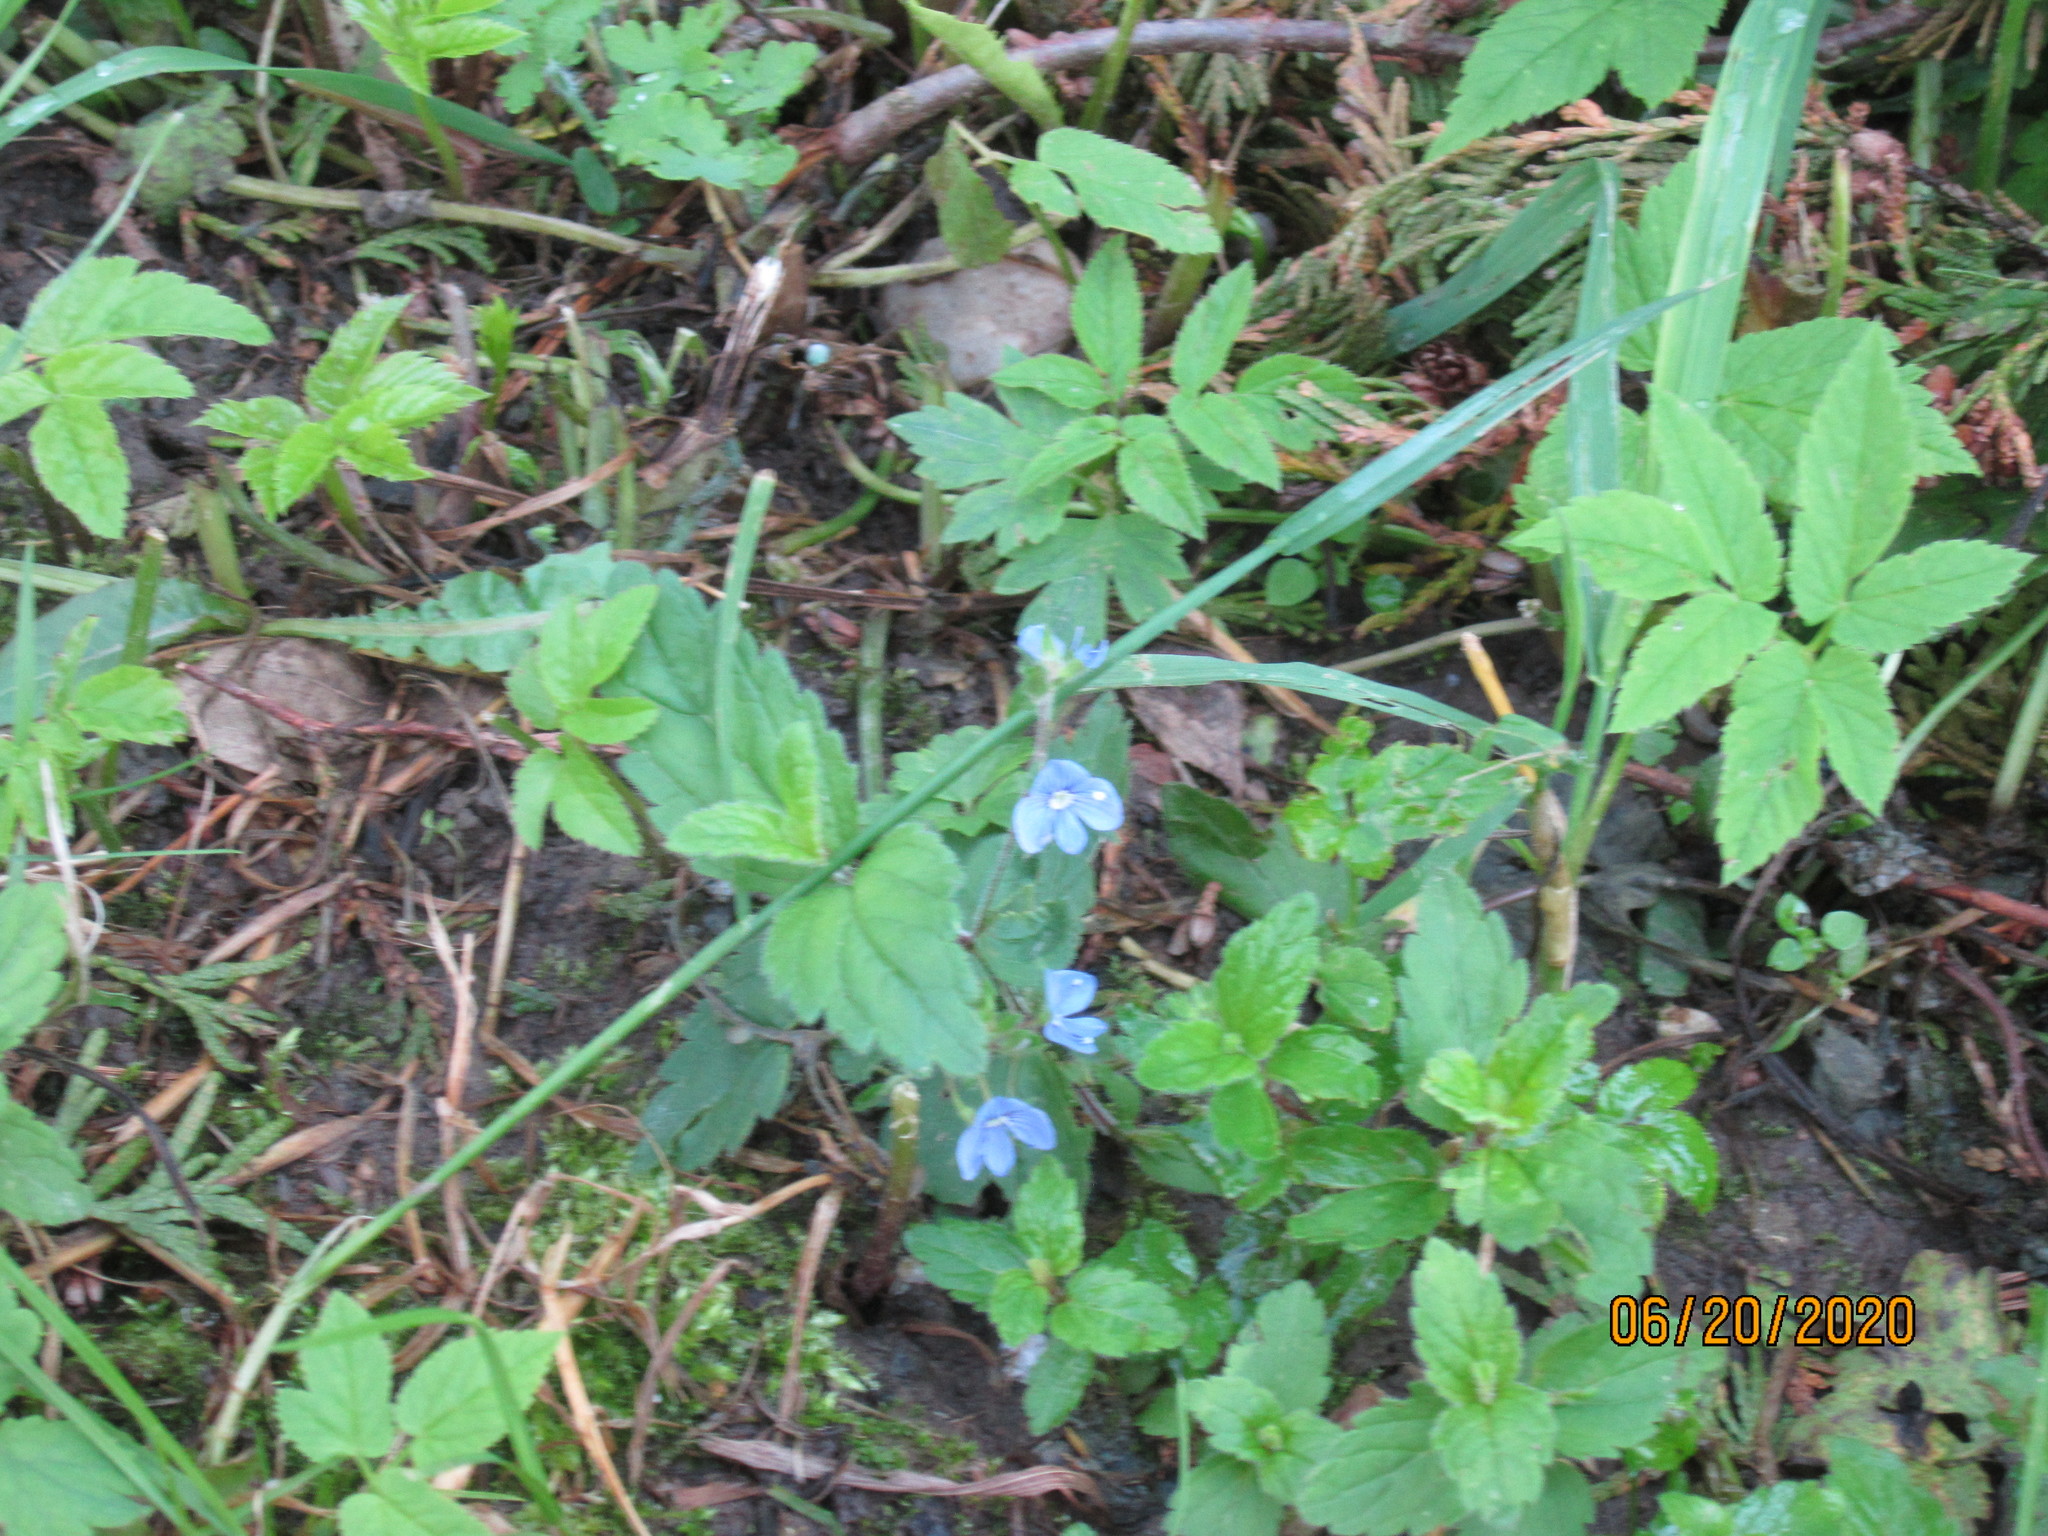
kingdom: Plantae
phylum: Tracheophyta
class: Magnoliopsida
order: Lamiales
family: Plantaginaceae
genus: Veronica
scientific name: Veronica chamaedrys
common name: Germander speedwell
